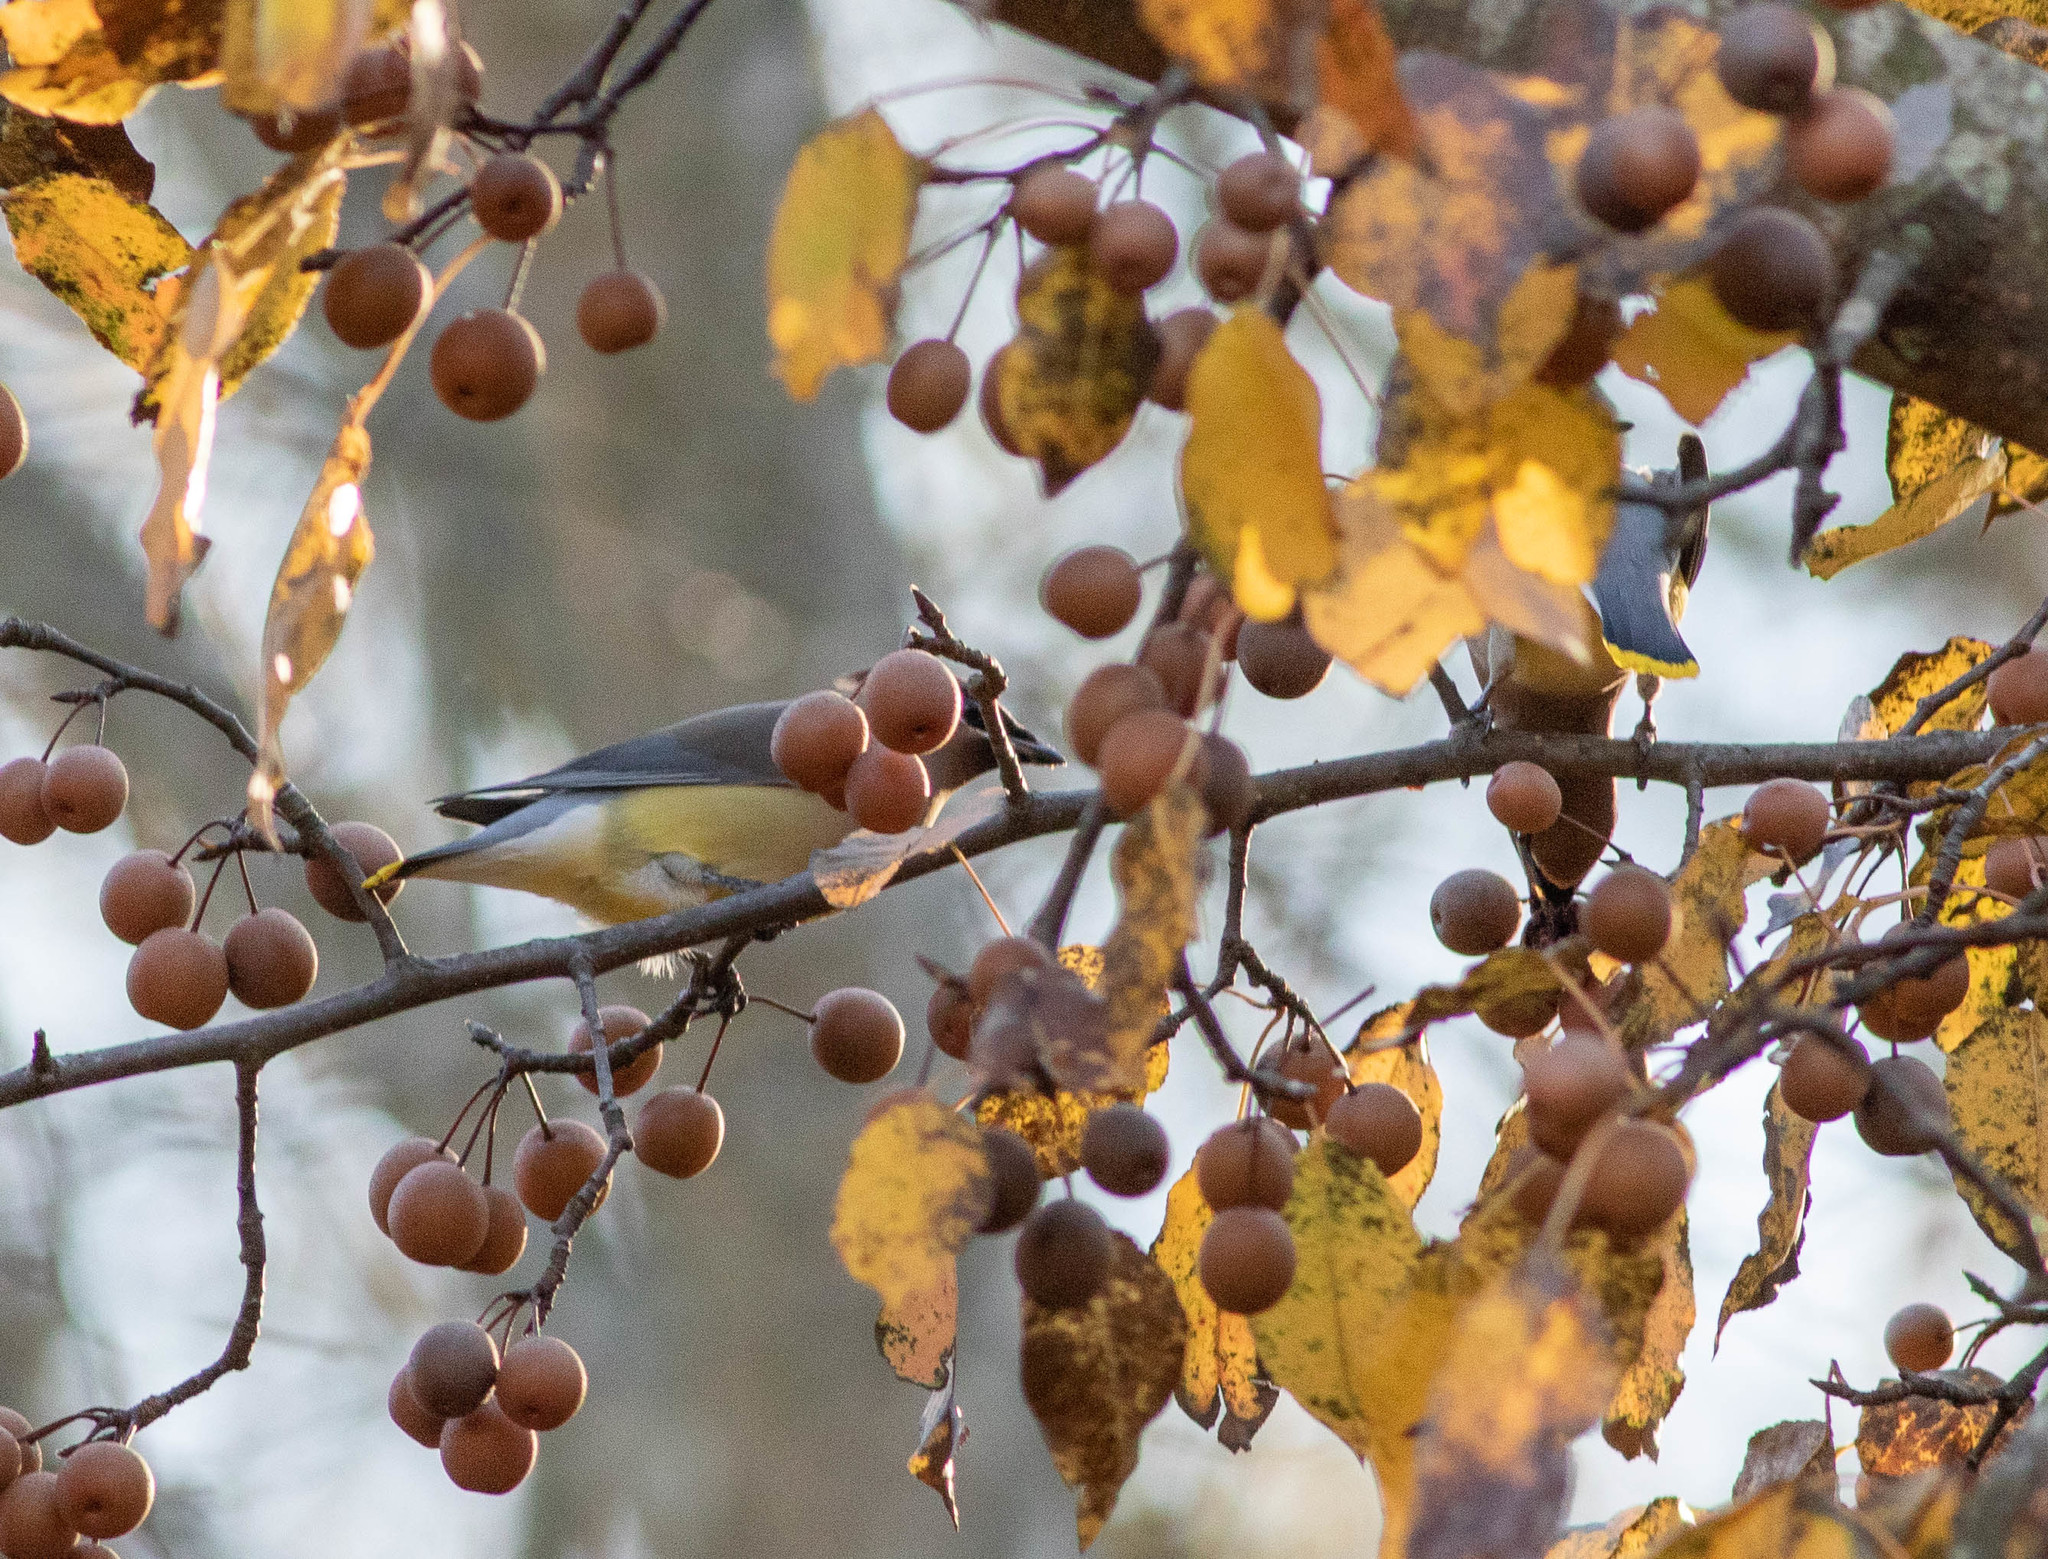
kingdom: Animalia
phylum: Chordata
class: Aves
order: Passeriformes
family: Bombycillidae
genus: Bombycilla
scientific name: Bombycilla cedrorum
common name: Cedar waxwing
